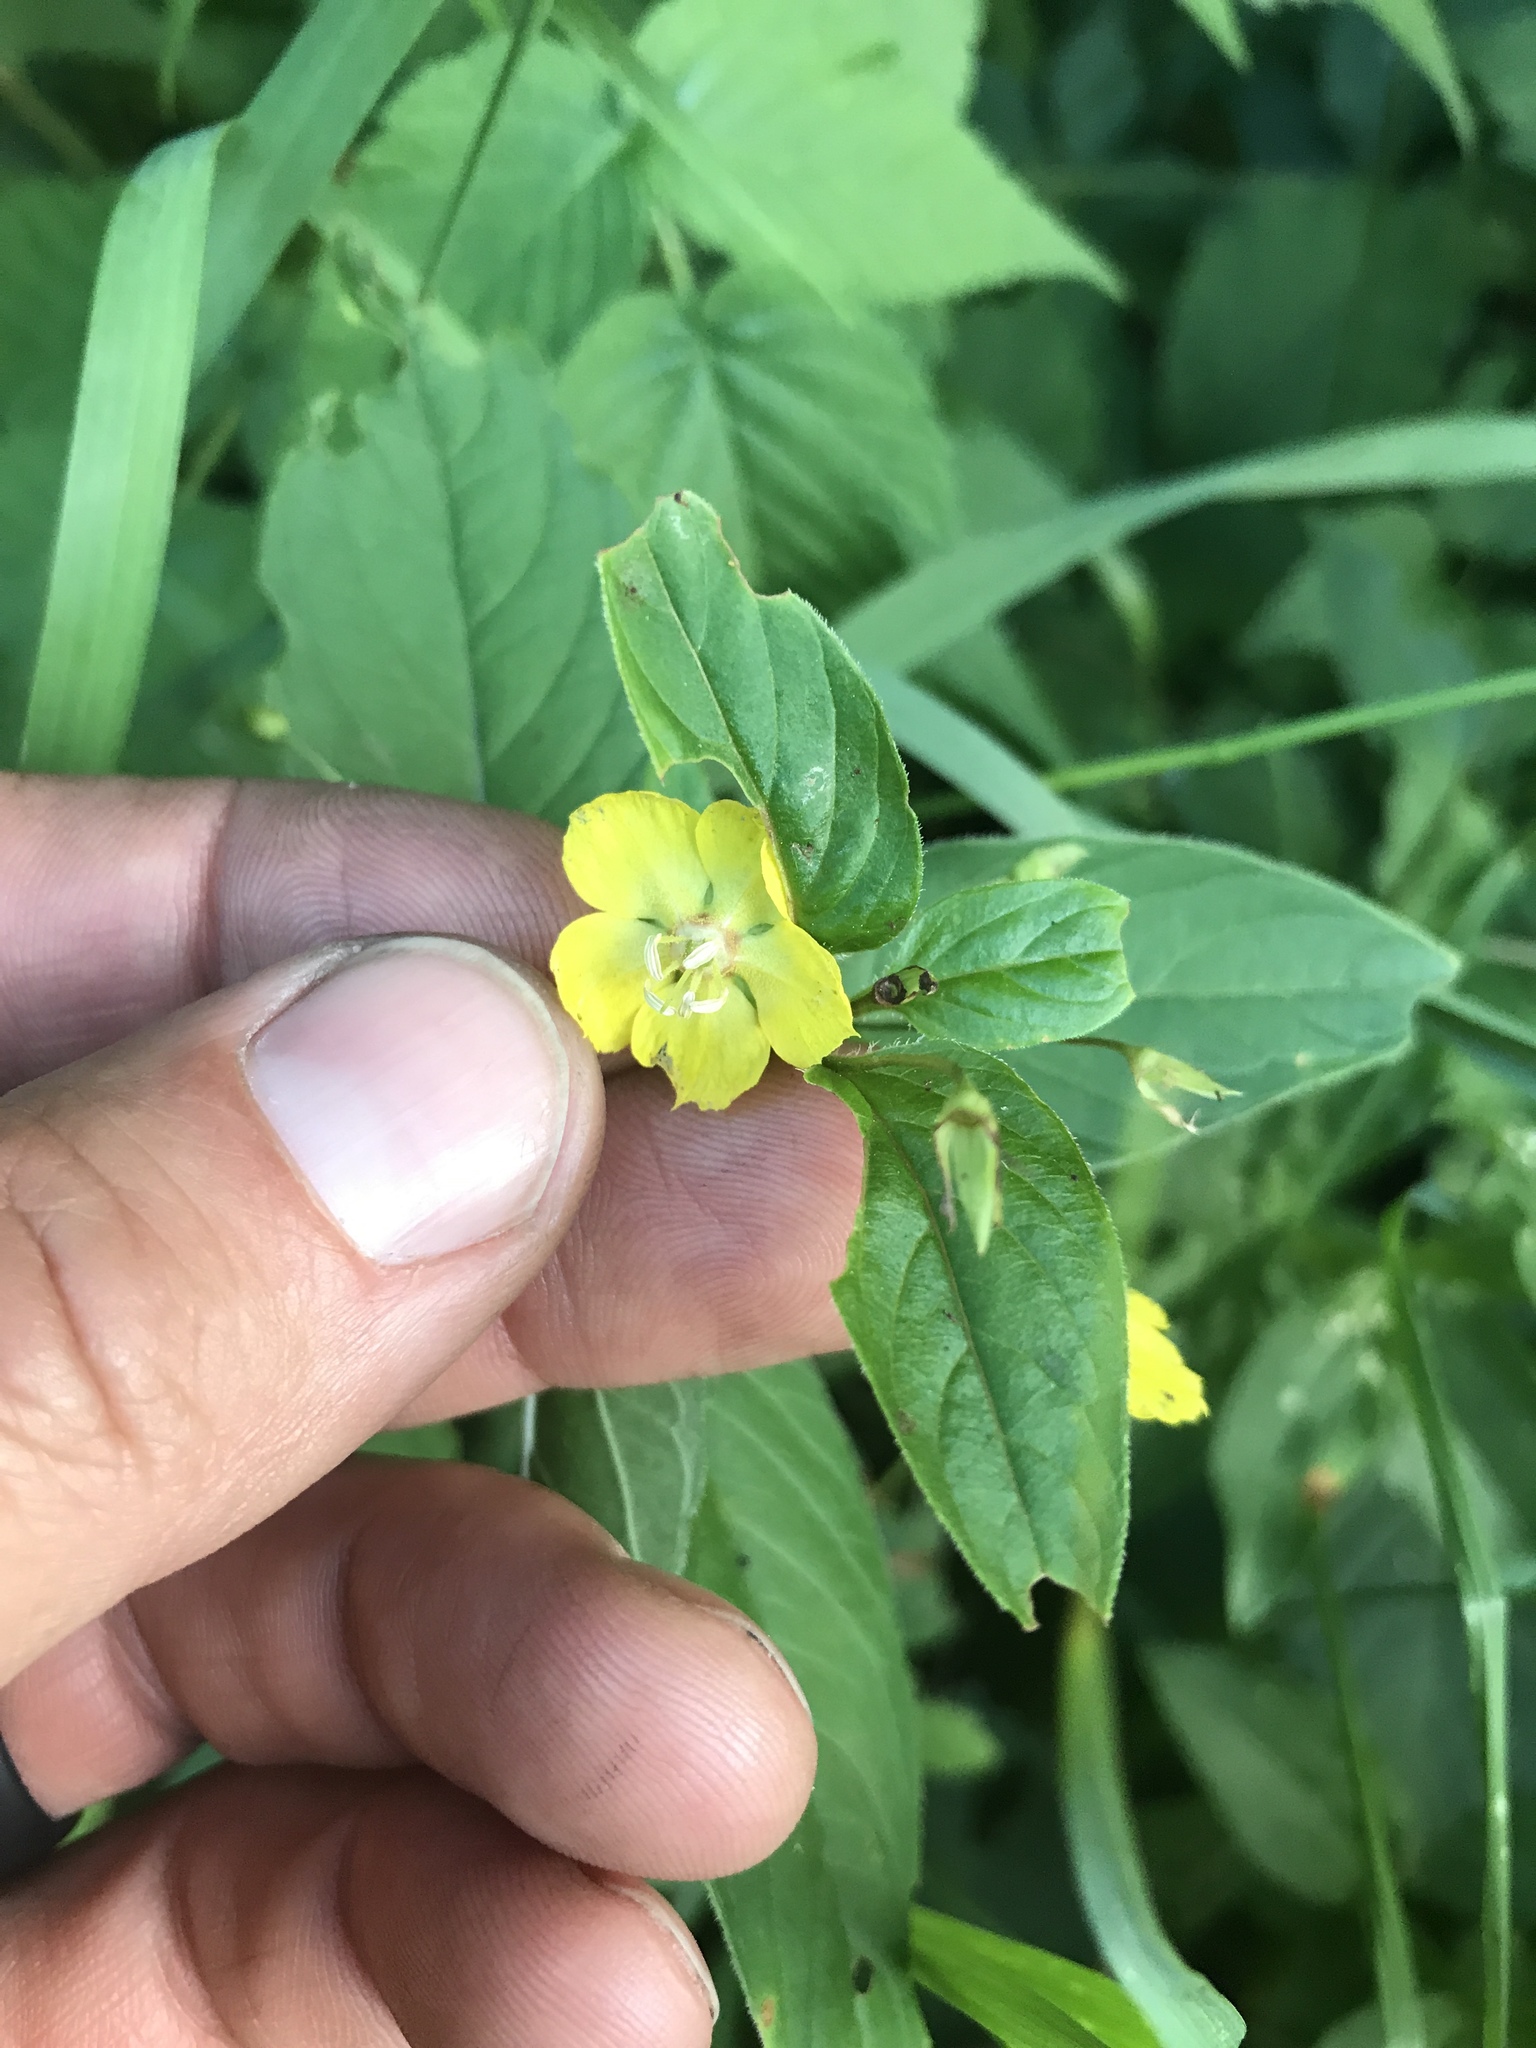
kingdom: Plantae
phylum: Tracheophyta
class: Magnoliopsida
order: Ericales
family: Primulaceae
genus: Lysimachia
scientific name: Lysimachia ciliata
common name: Fringed loosestrife
